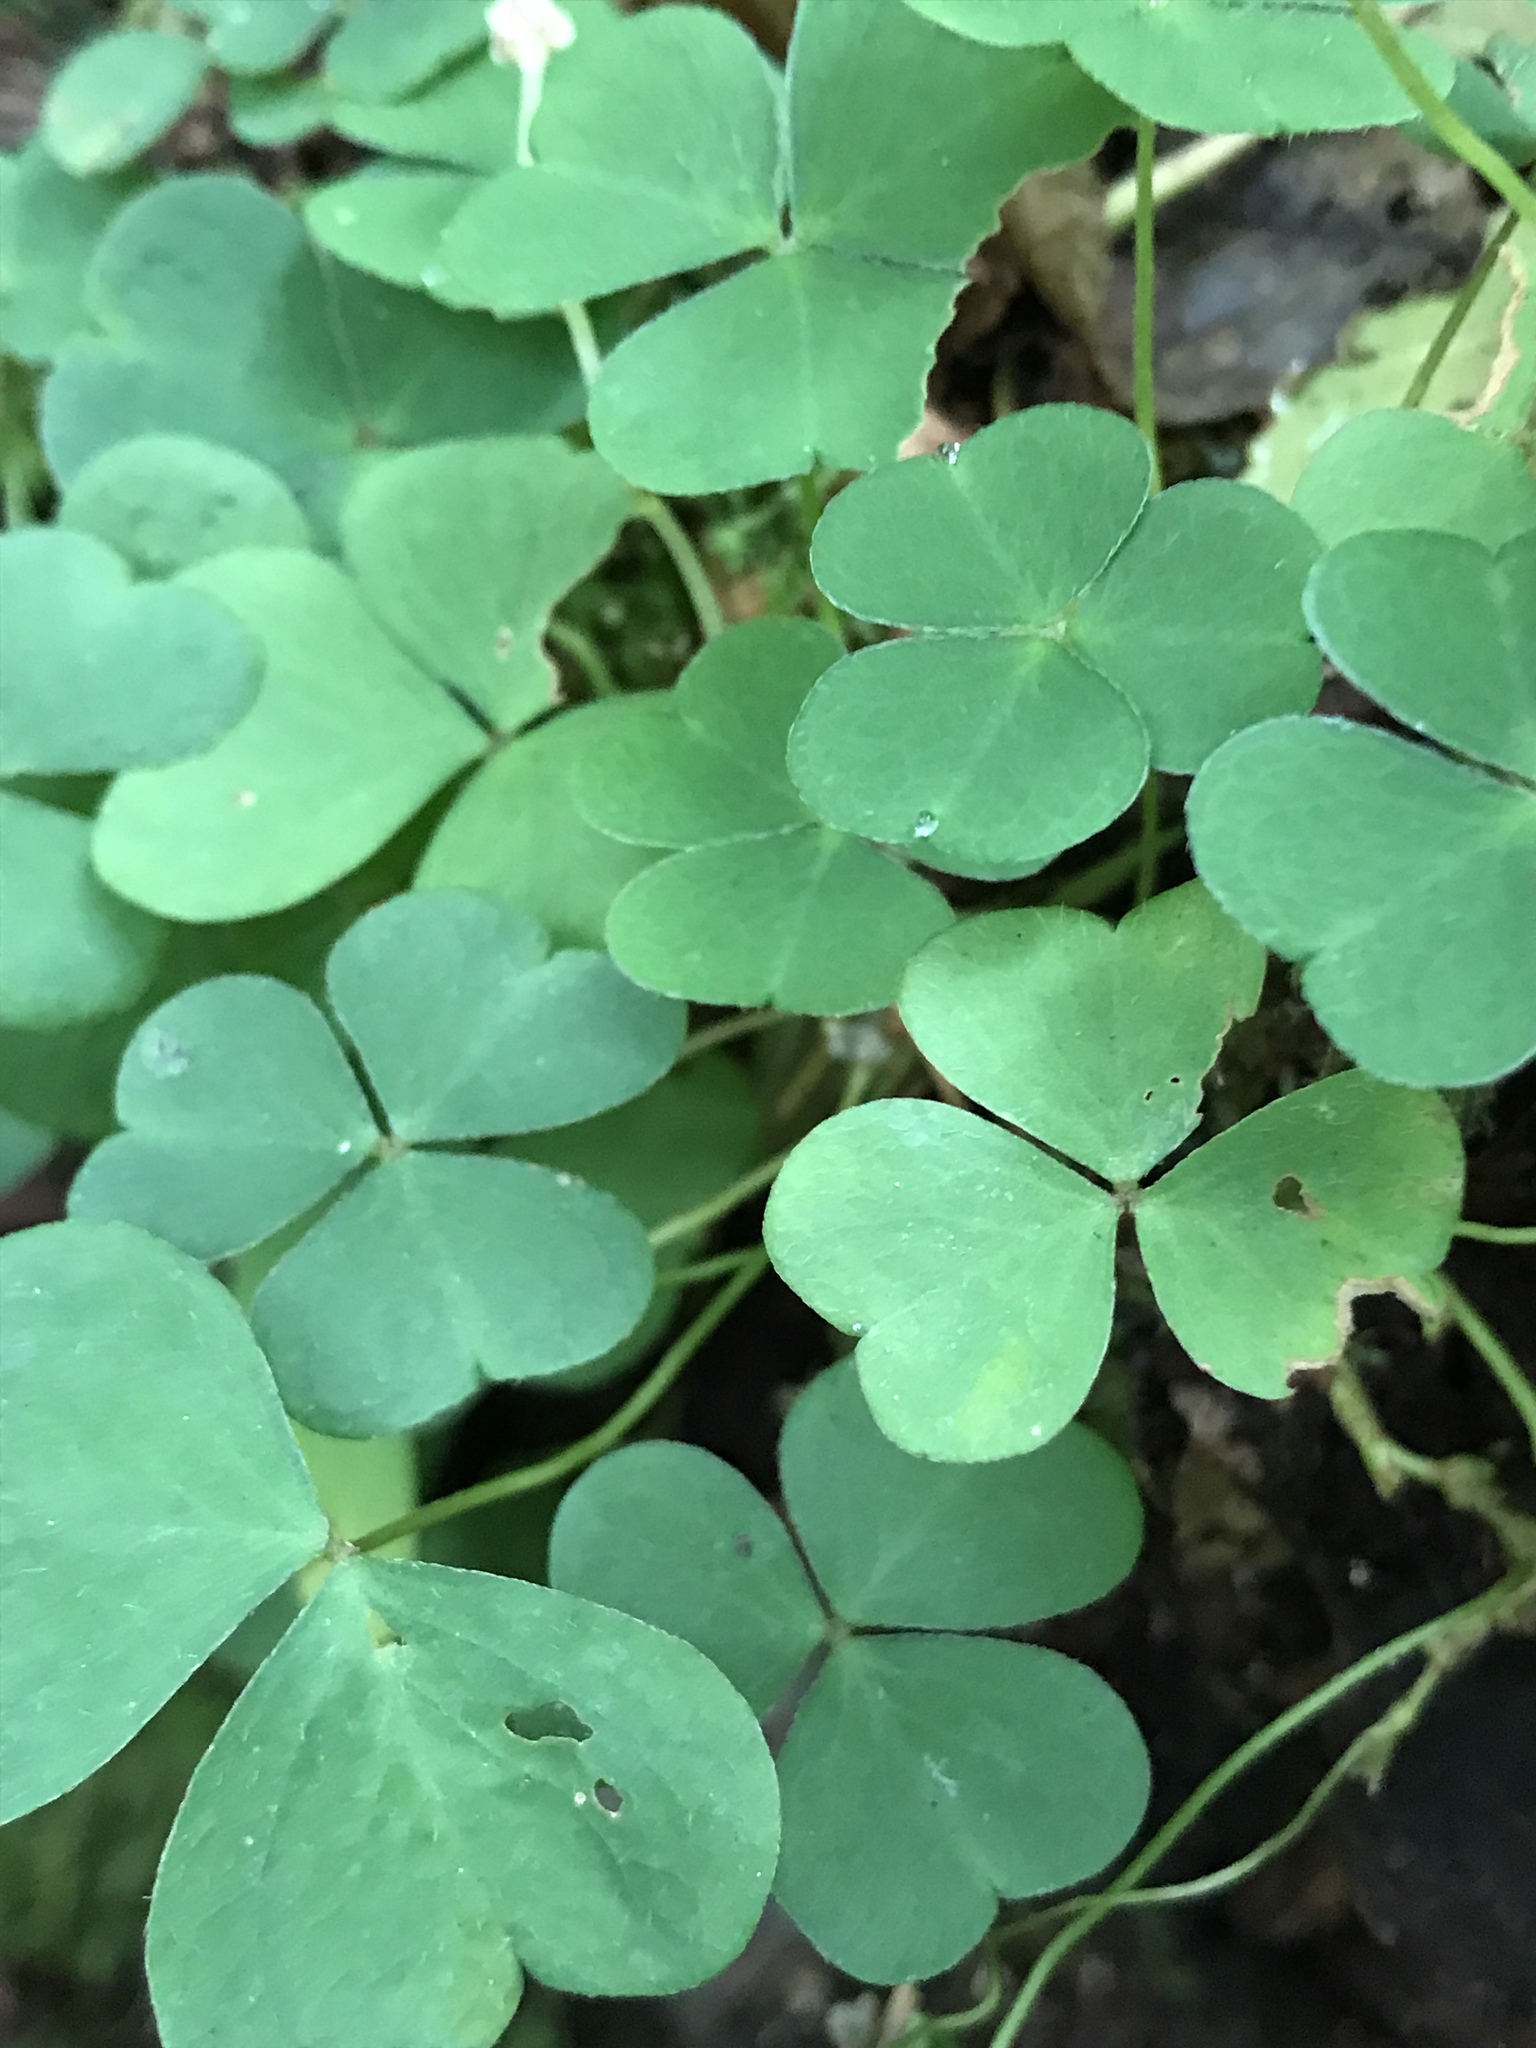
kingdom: Plantae
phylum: Tracheophyta
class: Magnoliopsida
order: Oxalidales
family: Oxalidaceae
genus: Oxalis
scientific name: Oxalis acetosella
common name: Wood-sorrel
